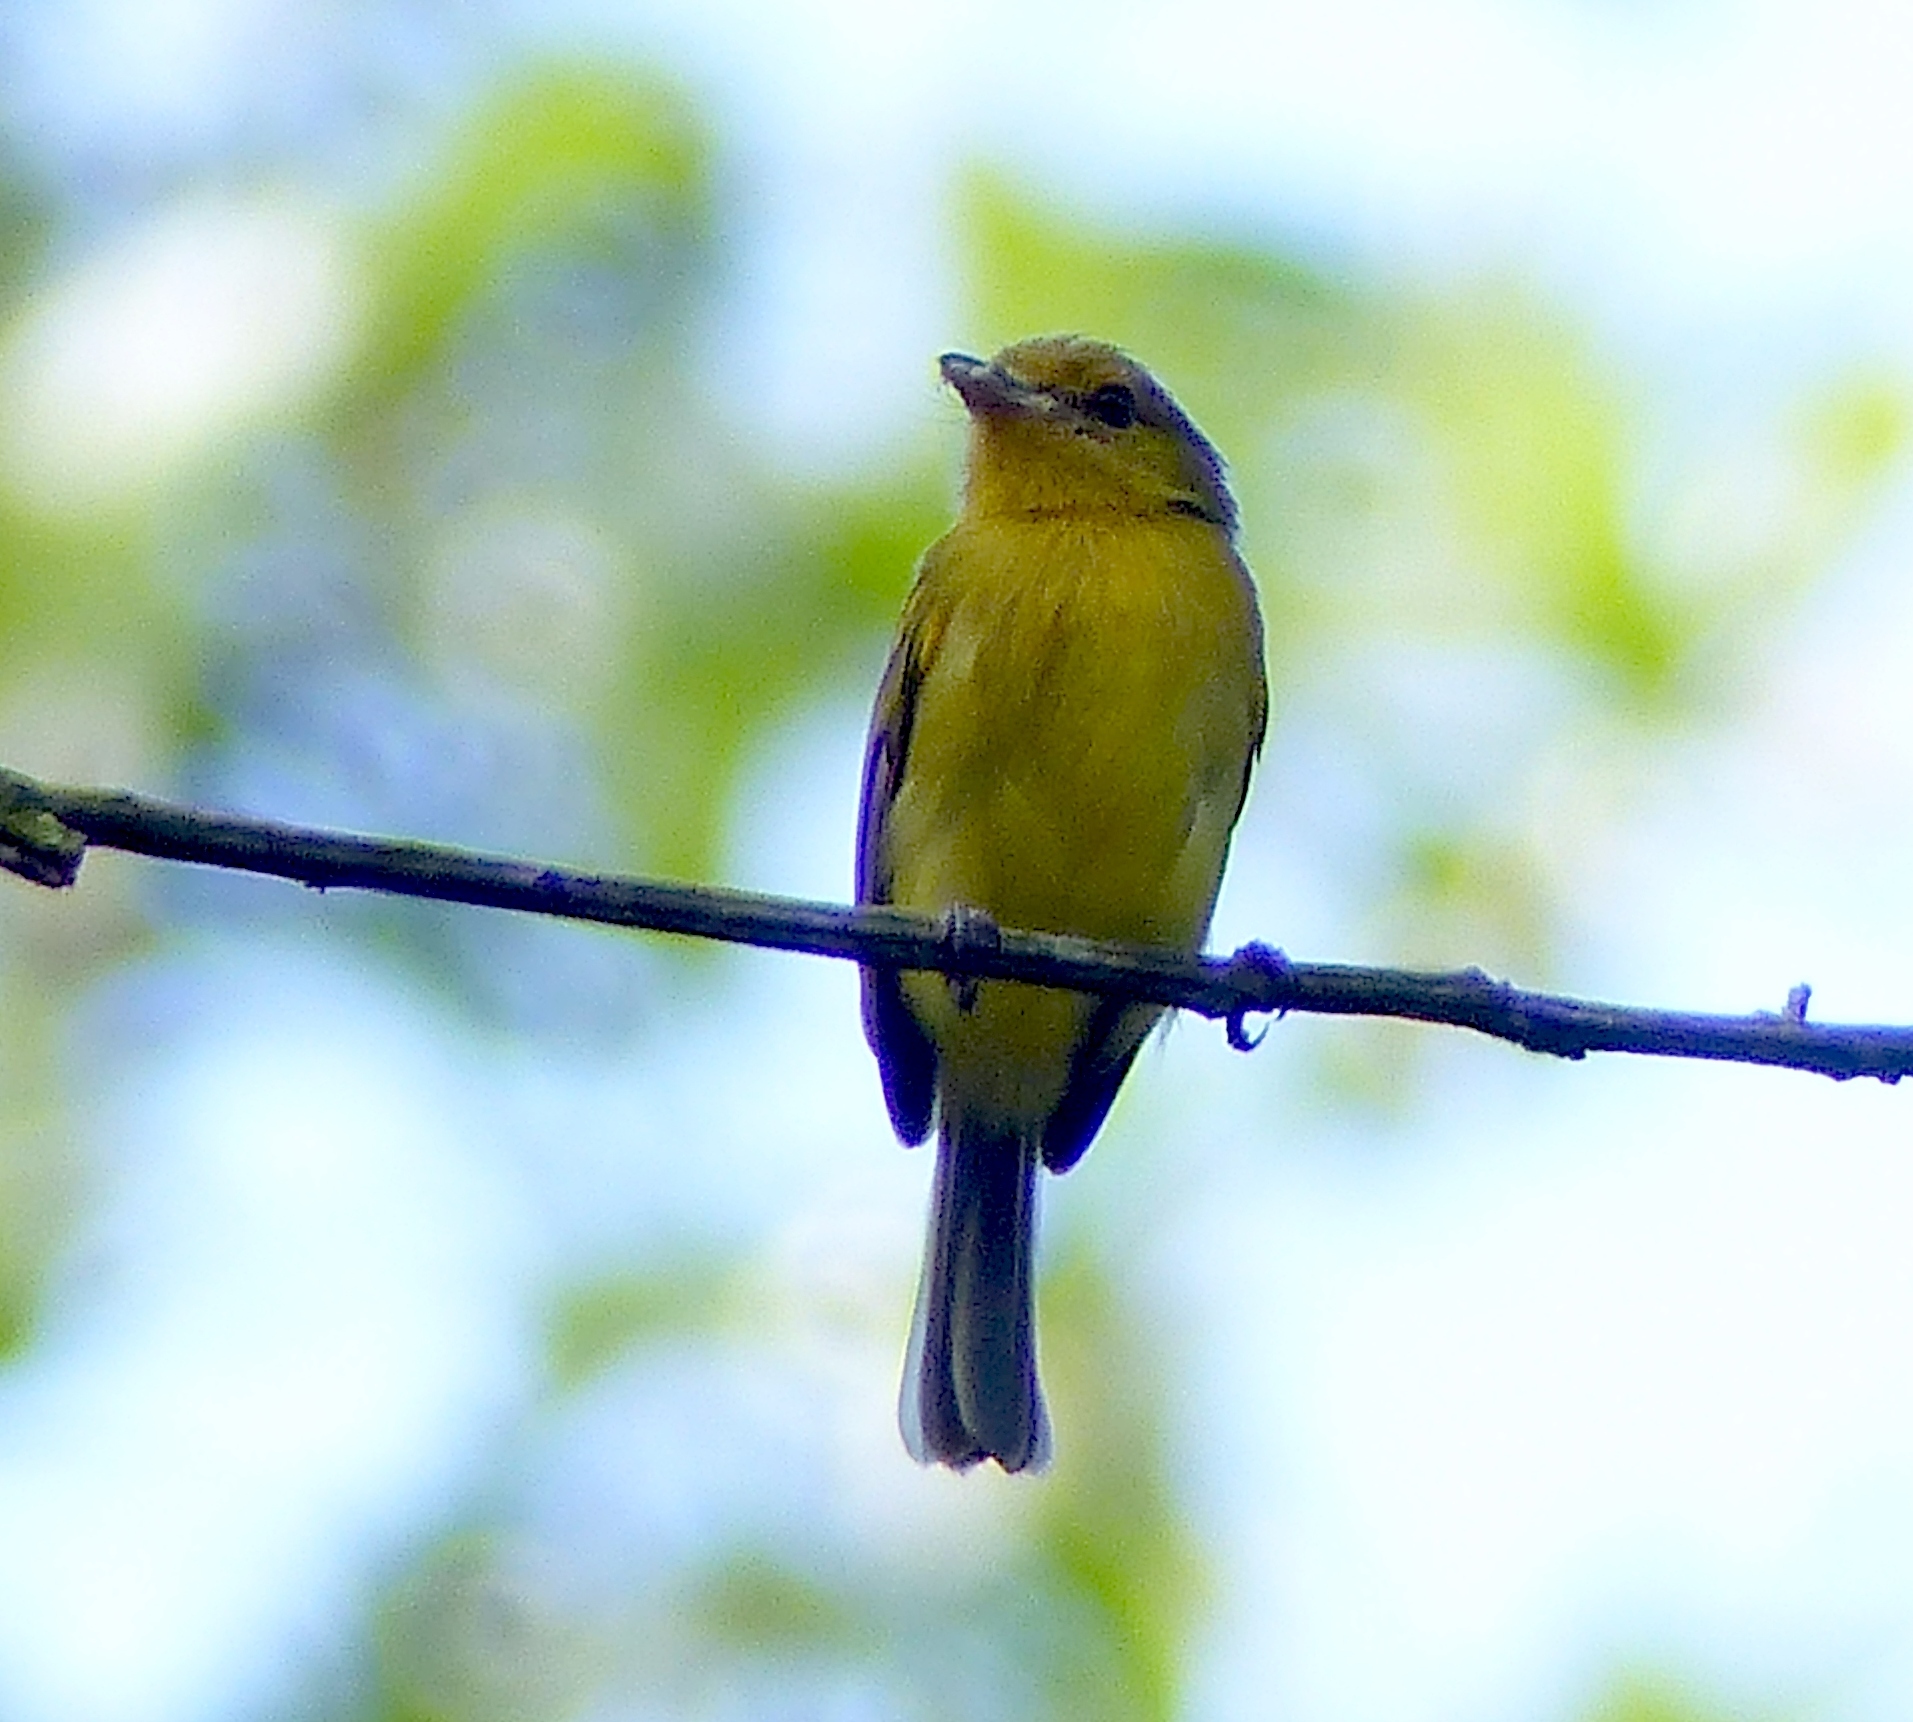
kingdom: Animalia
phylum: Chordata
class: Aves
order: Passeriformes
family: Tyrannidae
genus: Tolmomyias
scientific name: Tolmomyias flaviventris
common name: Ochre-lored flatbill
